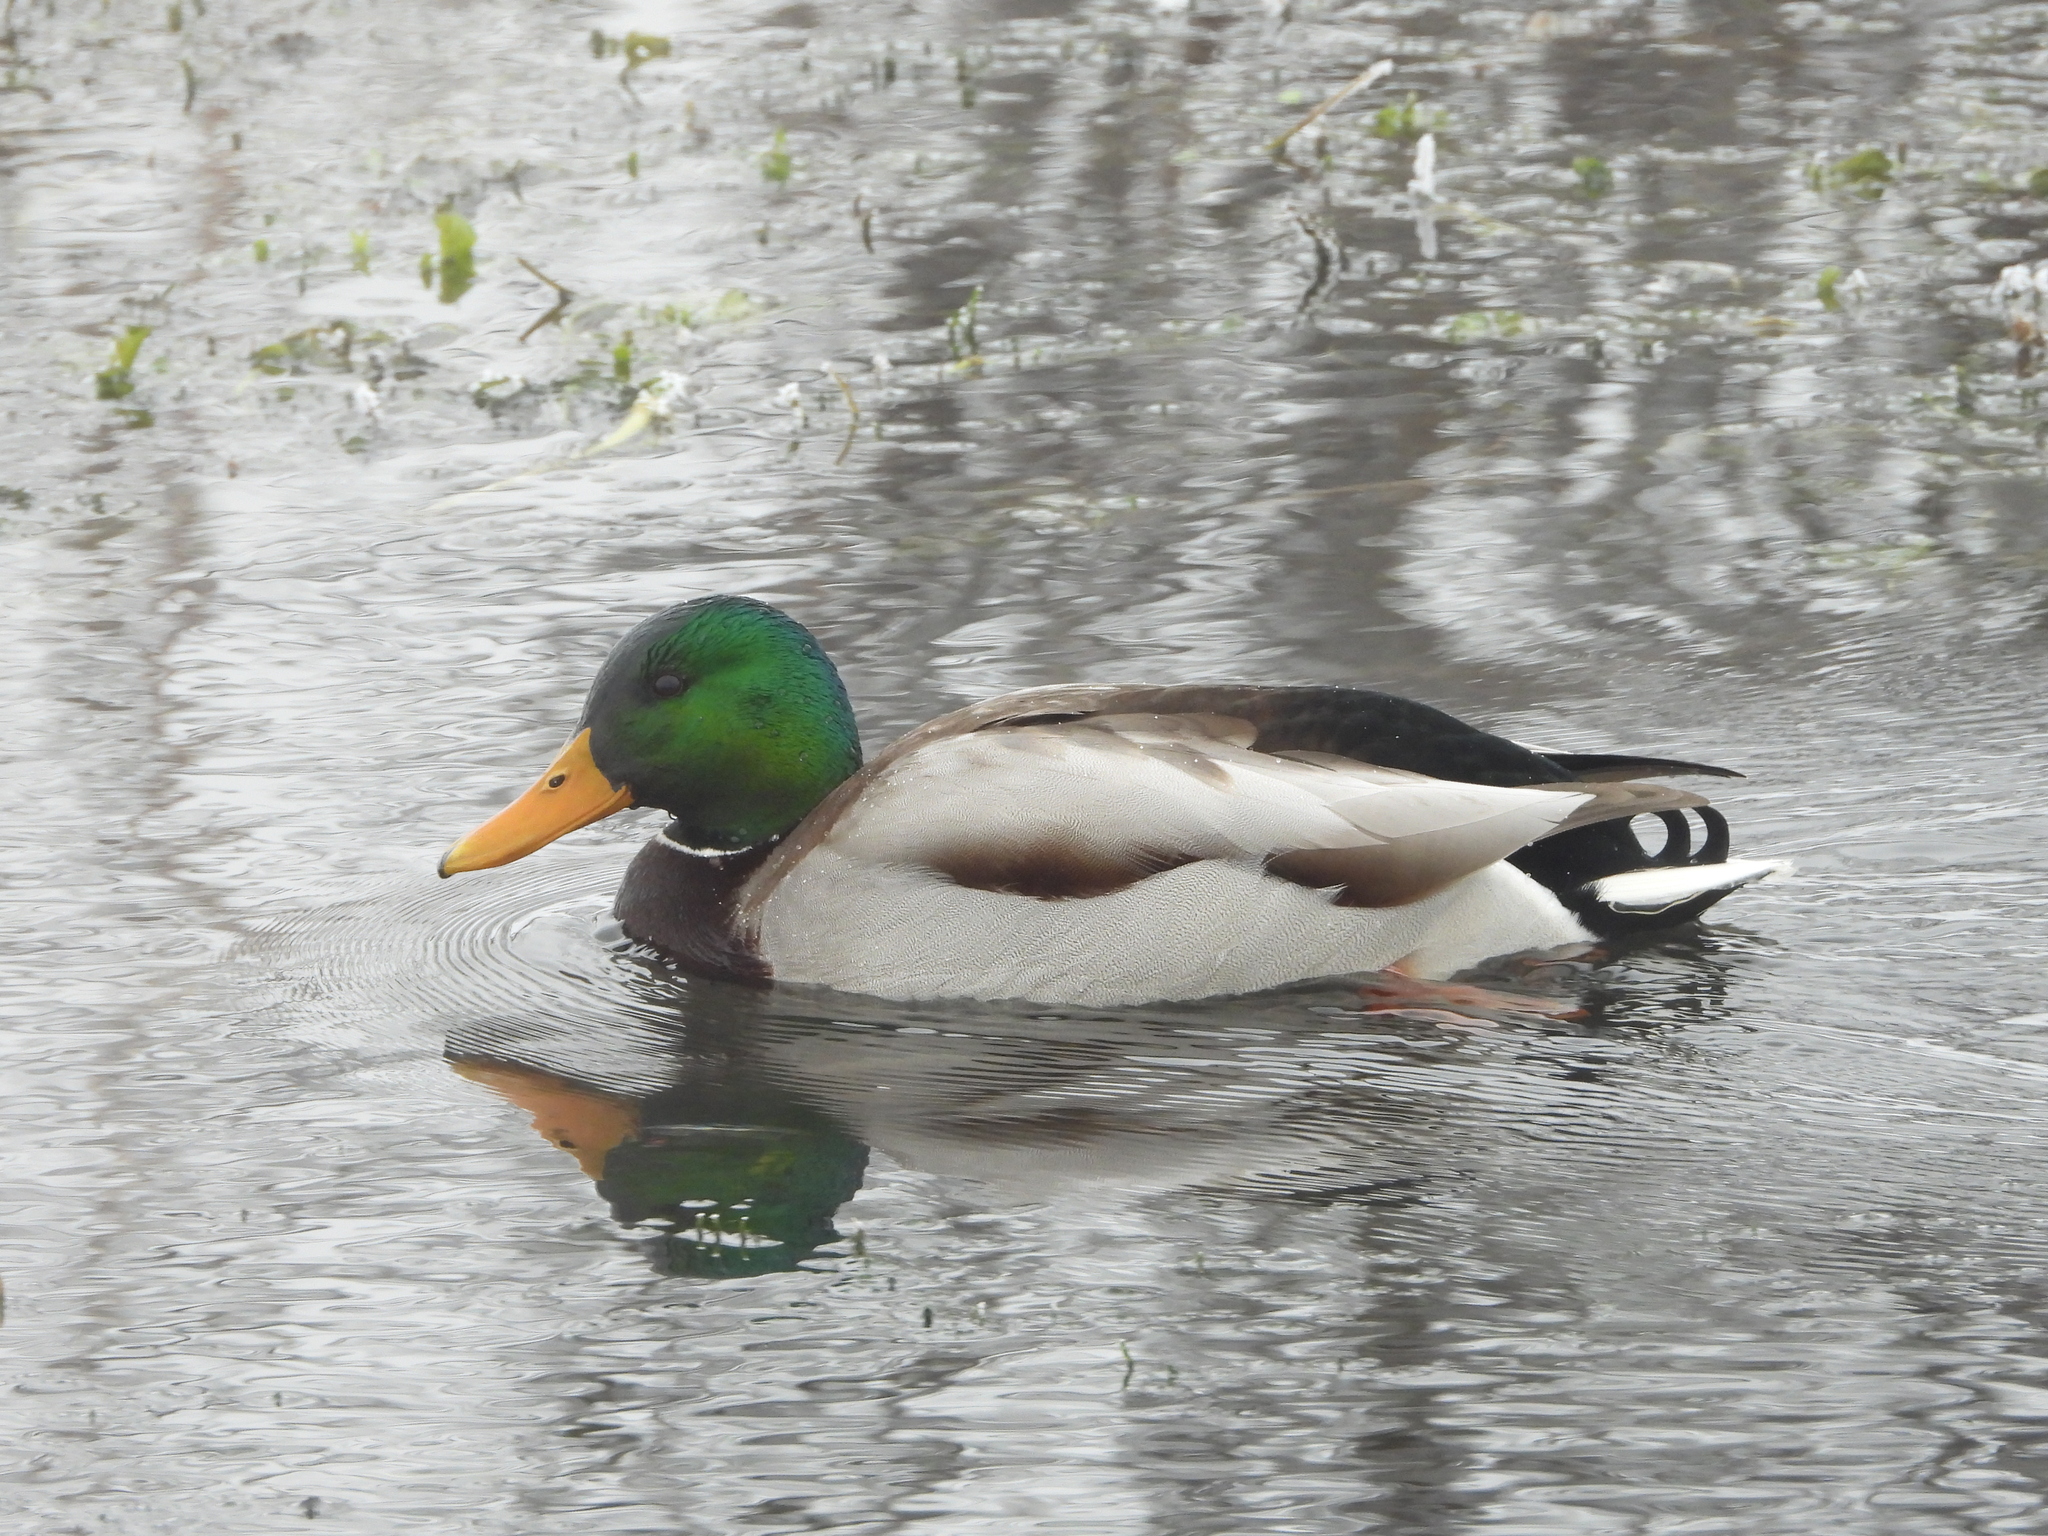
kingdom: Animalia
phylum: Chordata
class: Aves
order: Anseriformes
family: Anatidae
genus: Anas
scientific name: Anas platyrhynchos
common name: Mallard
